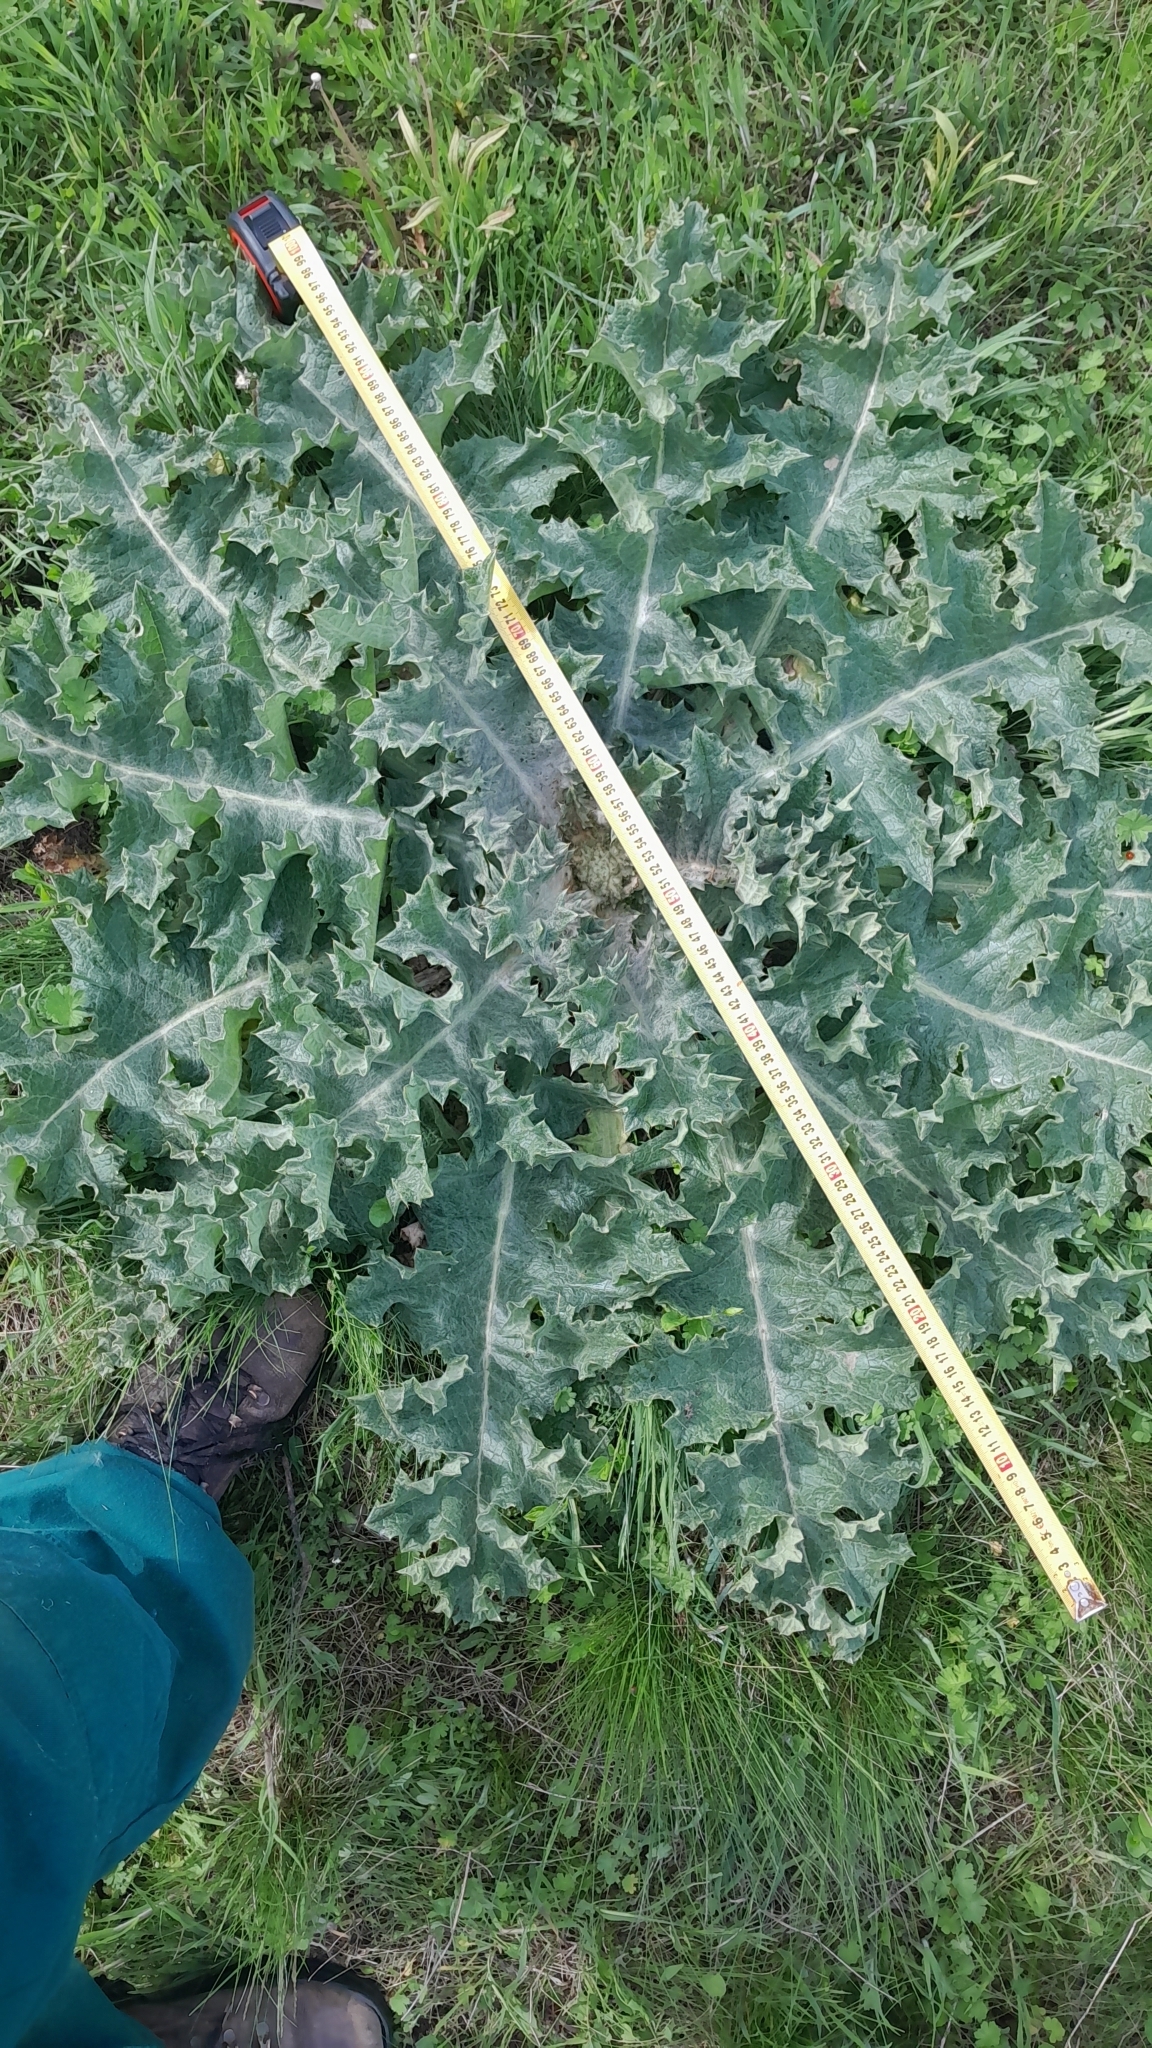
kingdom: Plantae
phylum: Tracheophyta
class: Magnoliopsida
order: Asterales
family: Asteraceae
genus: Onopordum
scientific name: Onopordum acanthium
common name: Scotch thistle
